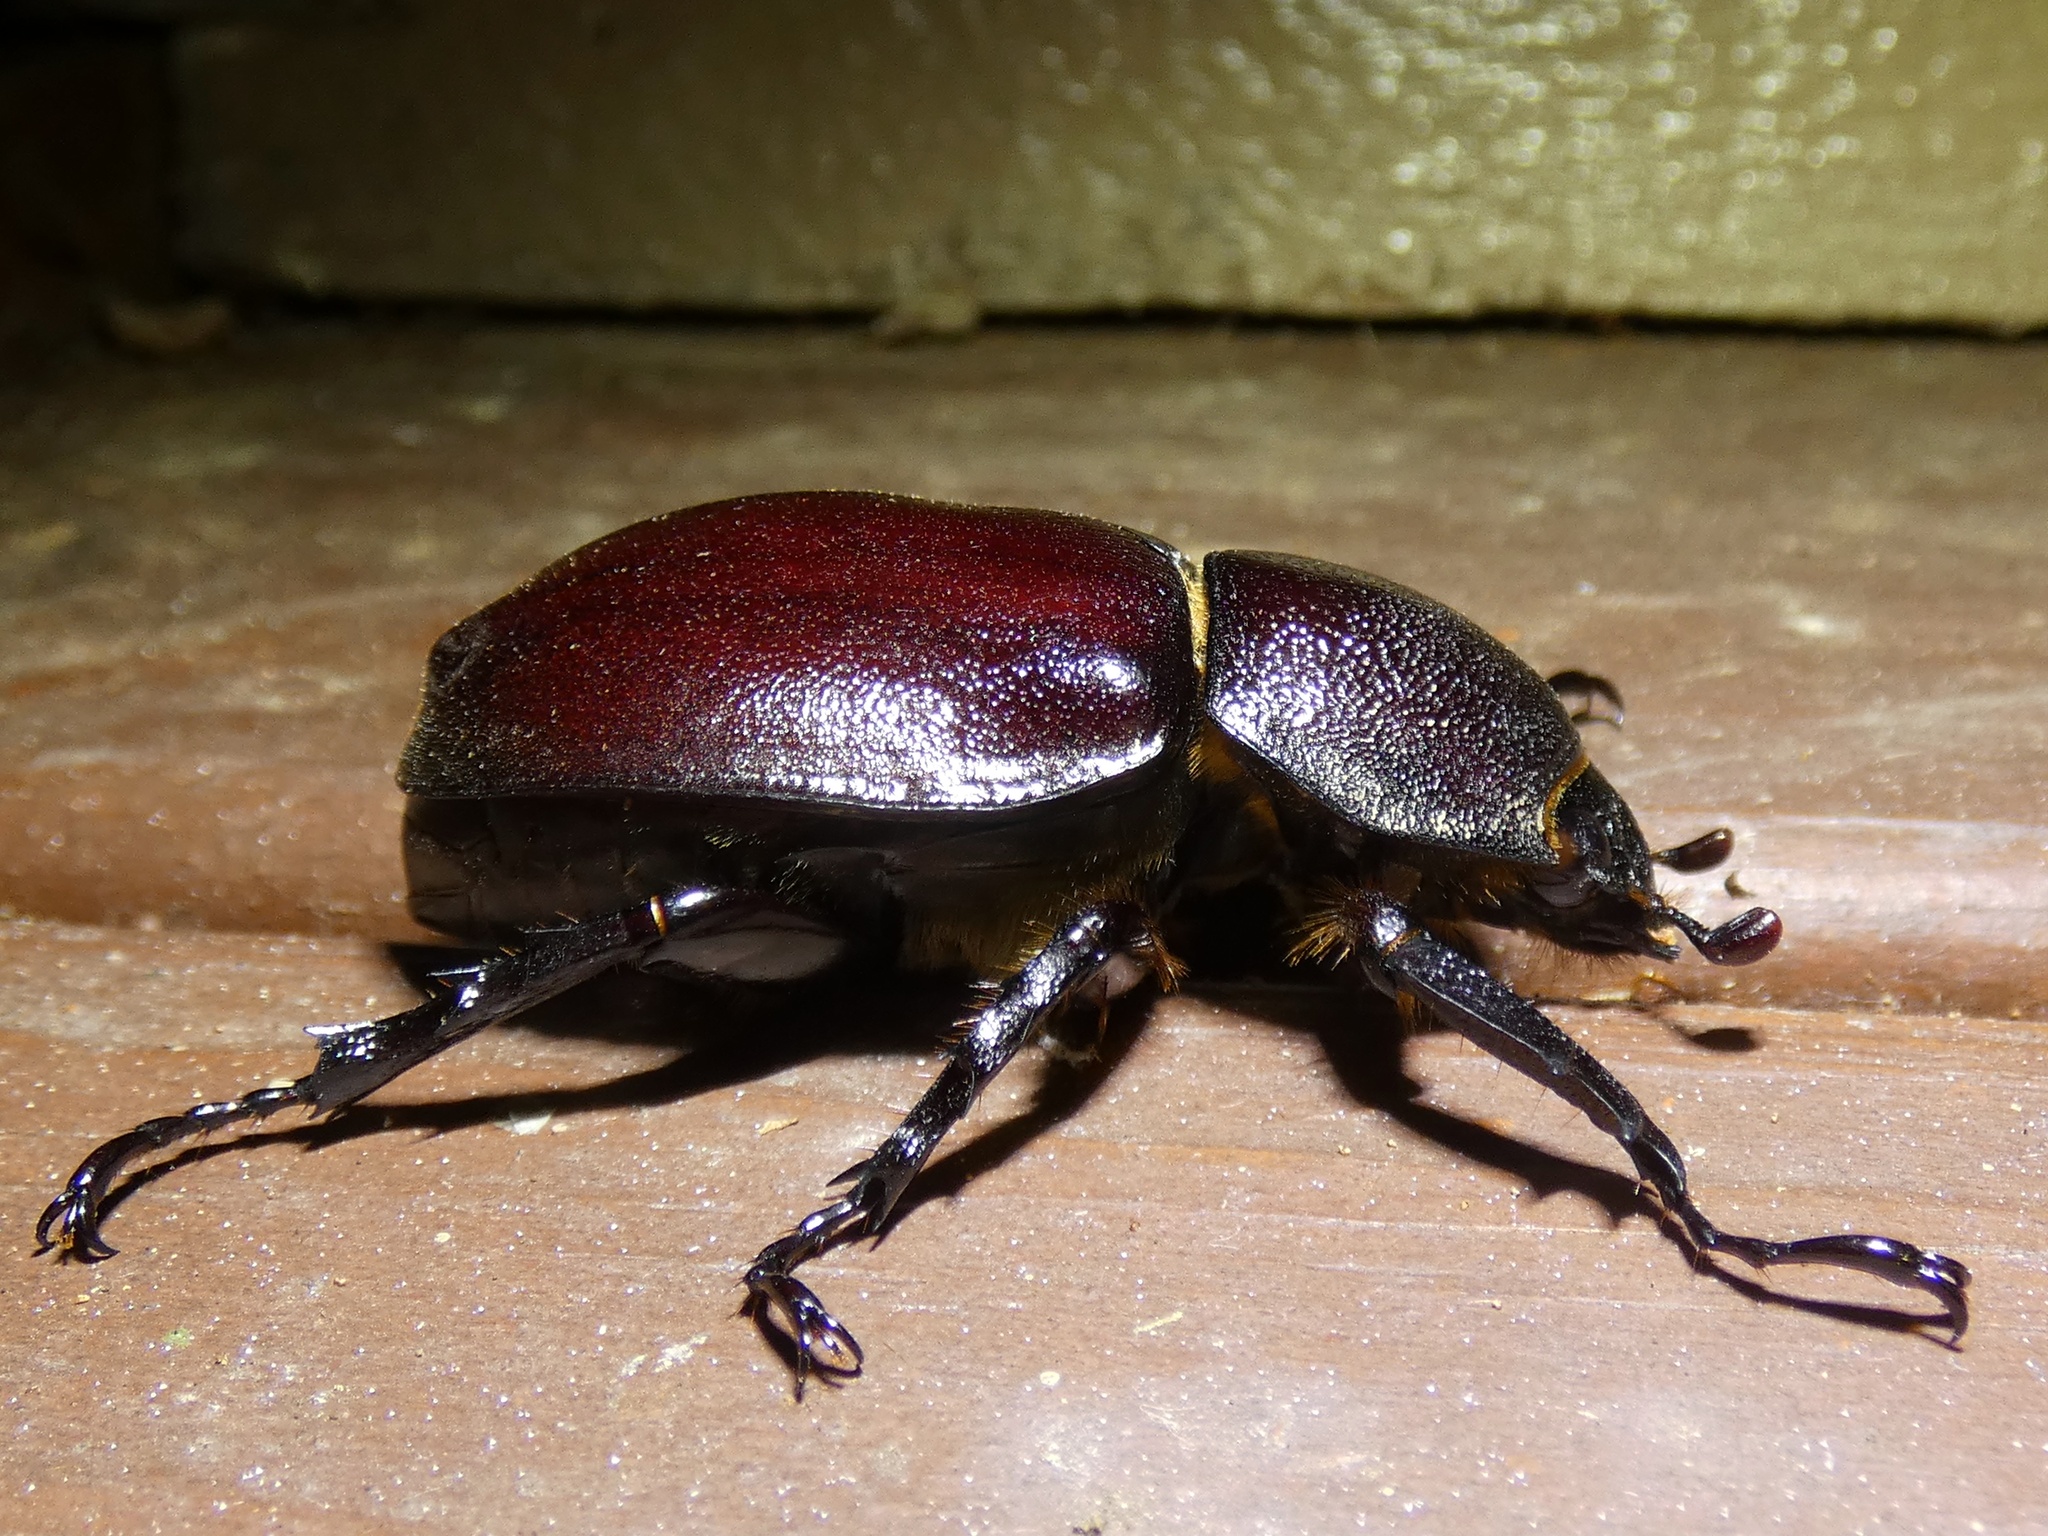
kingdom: Animalia
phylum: Arthropoda
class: Insecta
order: Coleoptera
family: Scarabaeidae
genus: Xylotrupes
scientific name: Xylotrupes australicus
